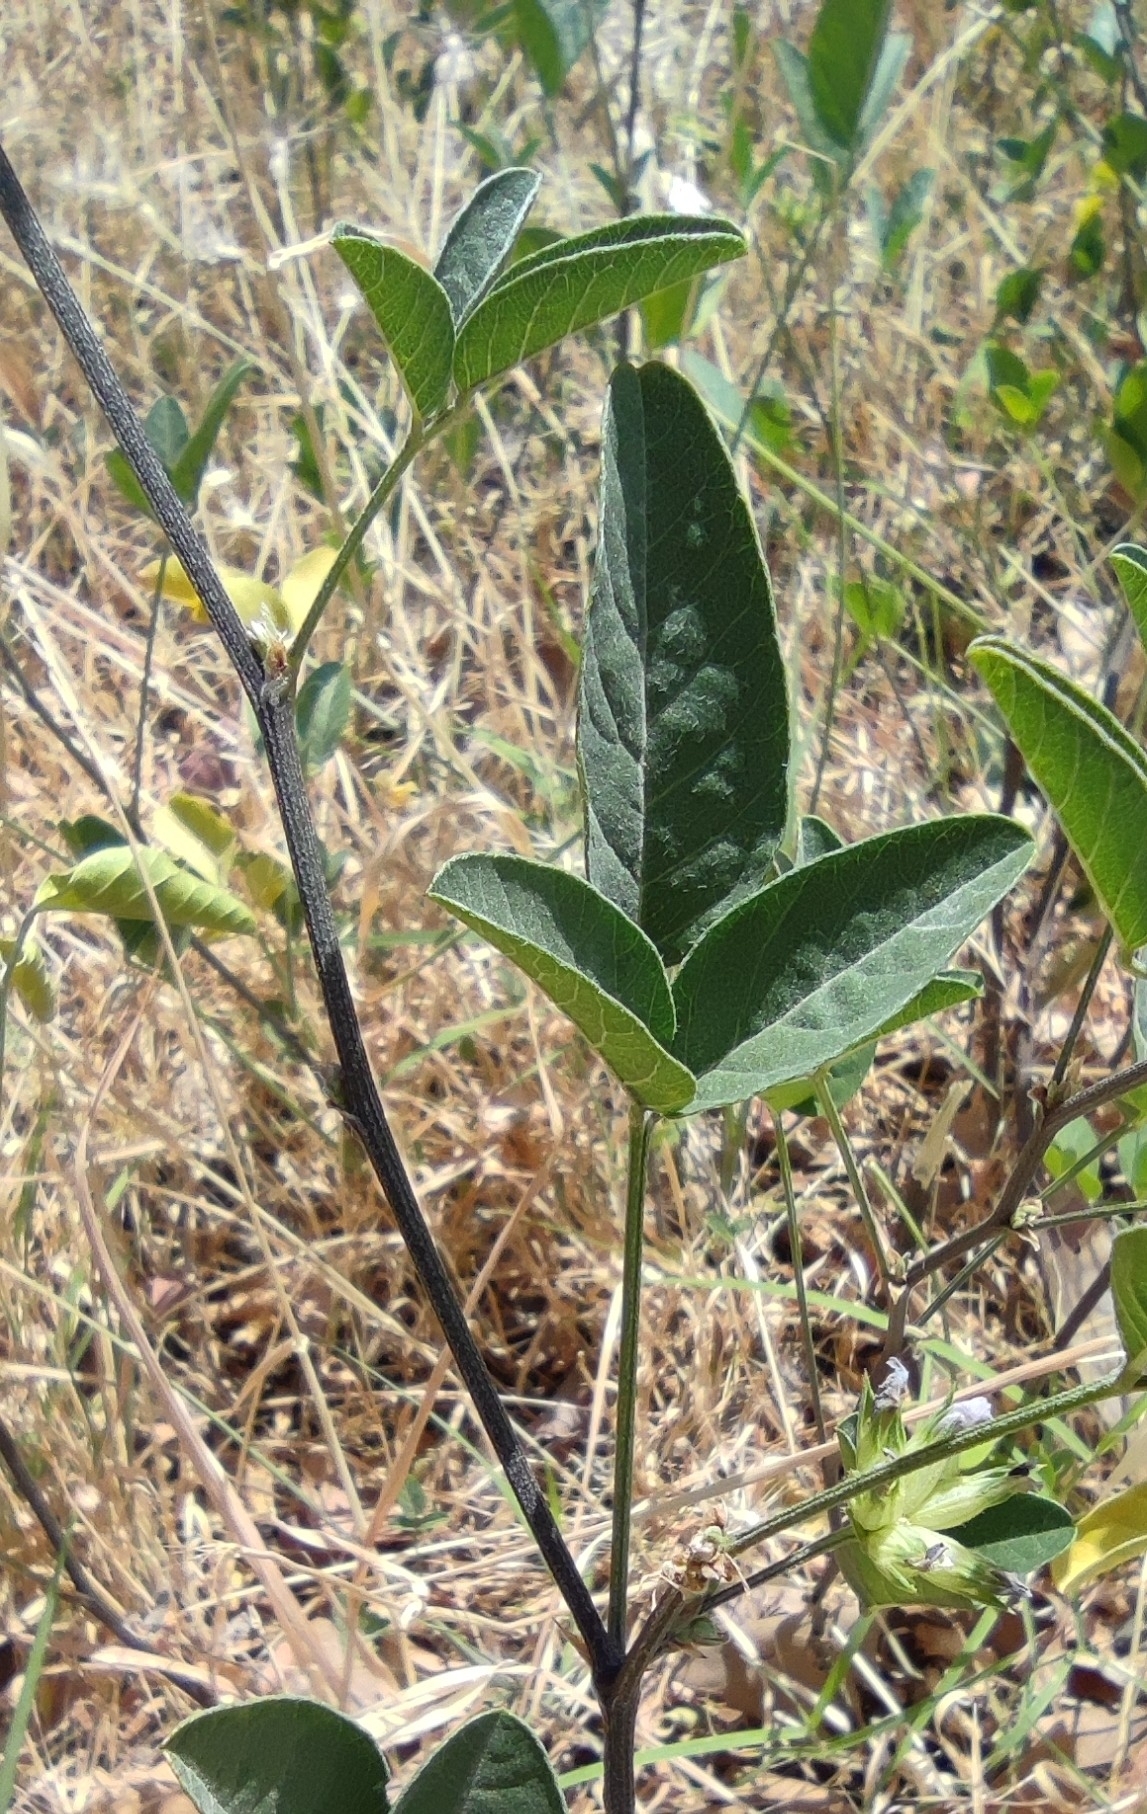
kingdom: Plantae
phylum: Tracheophyta
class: Magnoliopsida
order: Fabales
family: Fabaceae
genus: Bituminaria
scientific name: Bituminaria bituminosa
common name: Arabian pea
